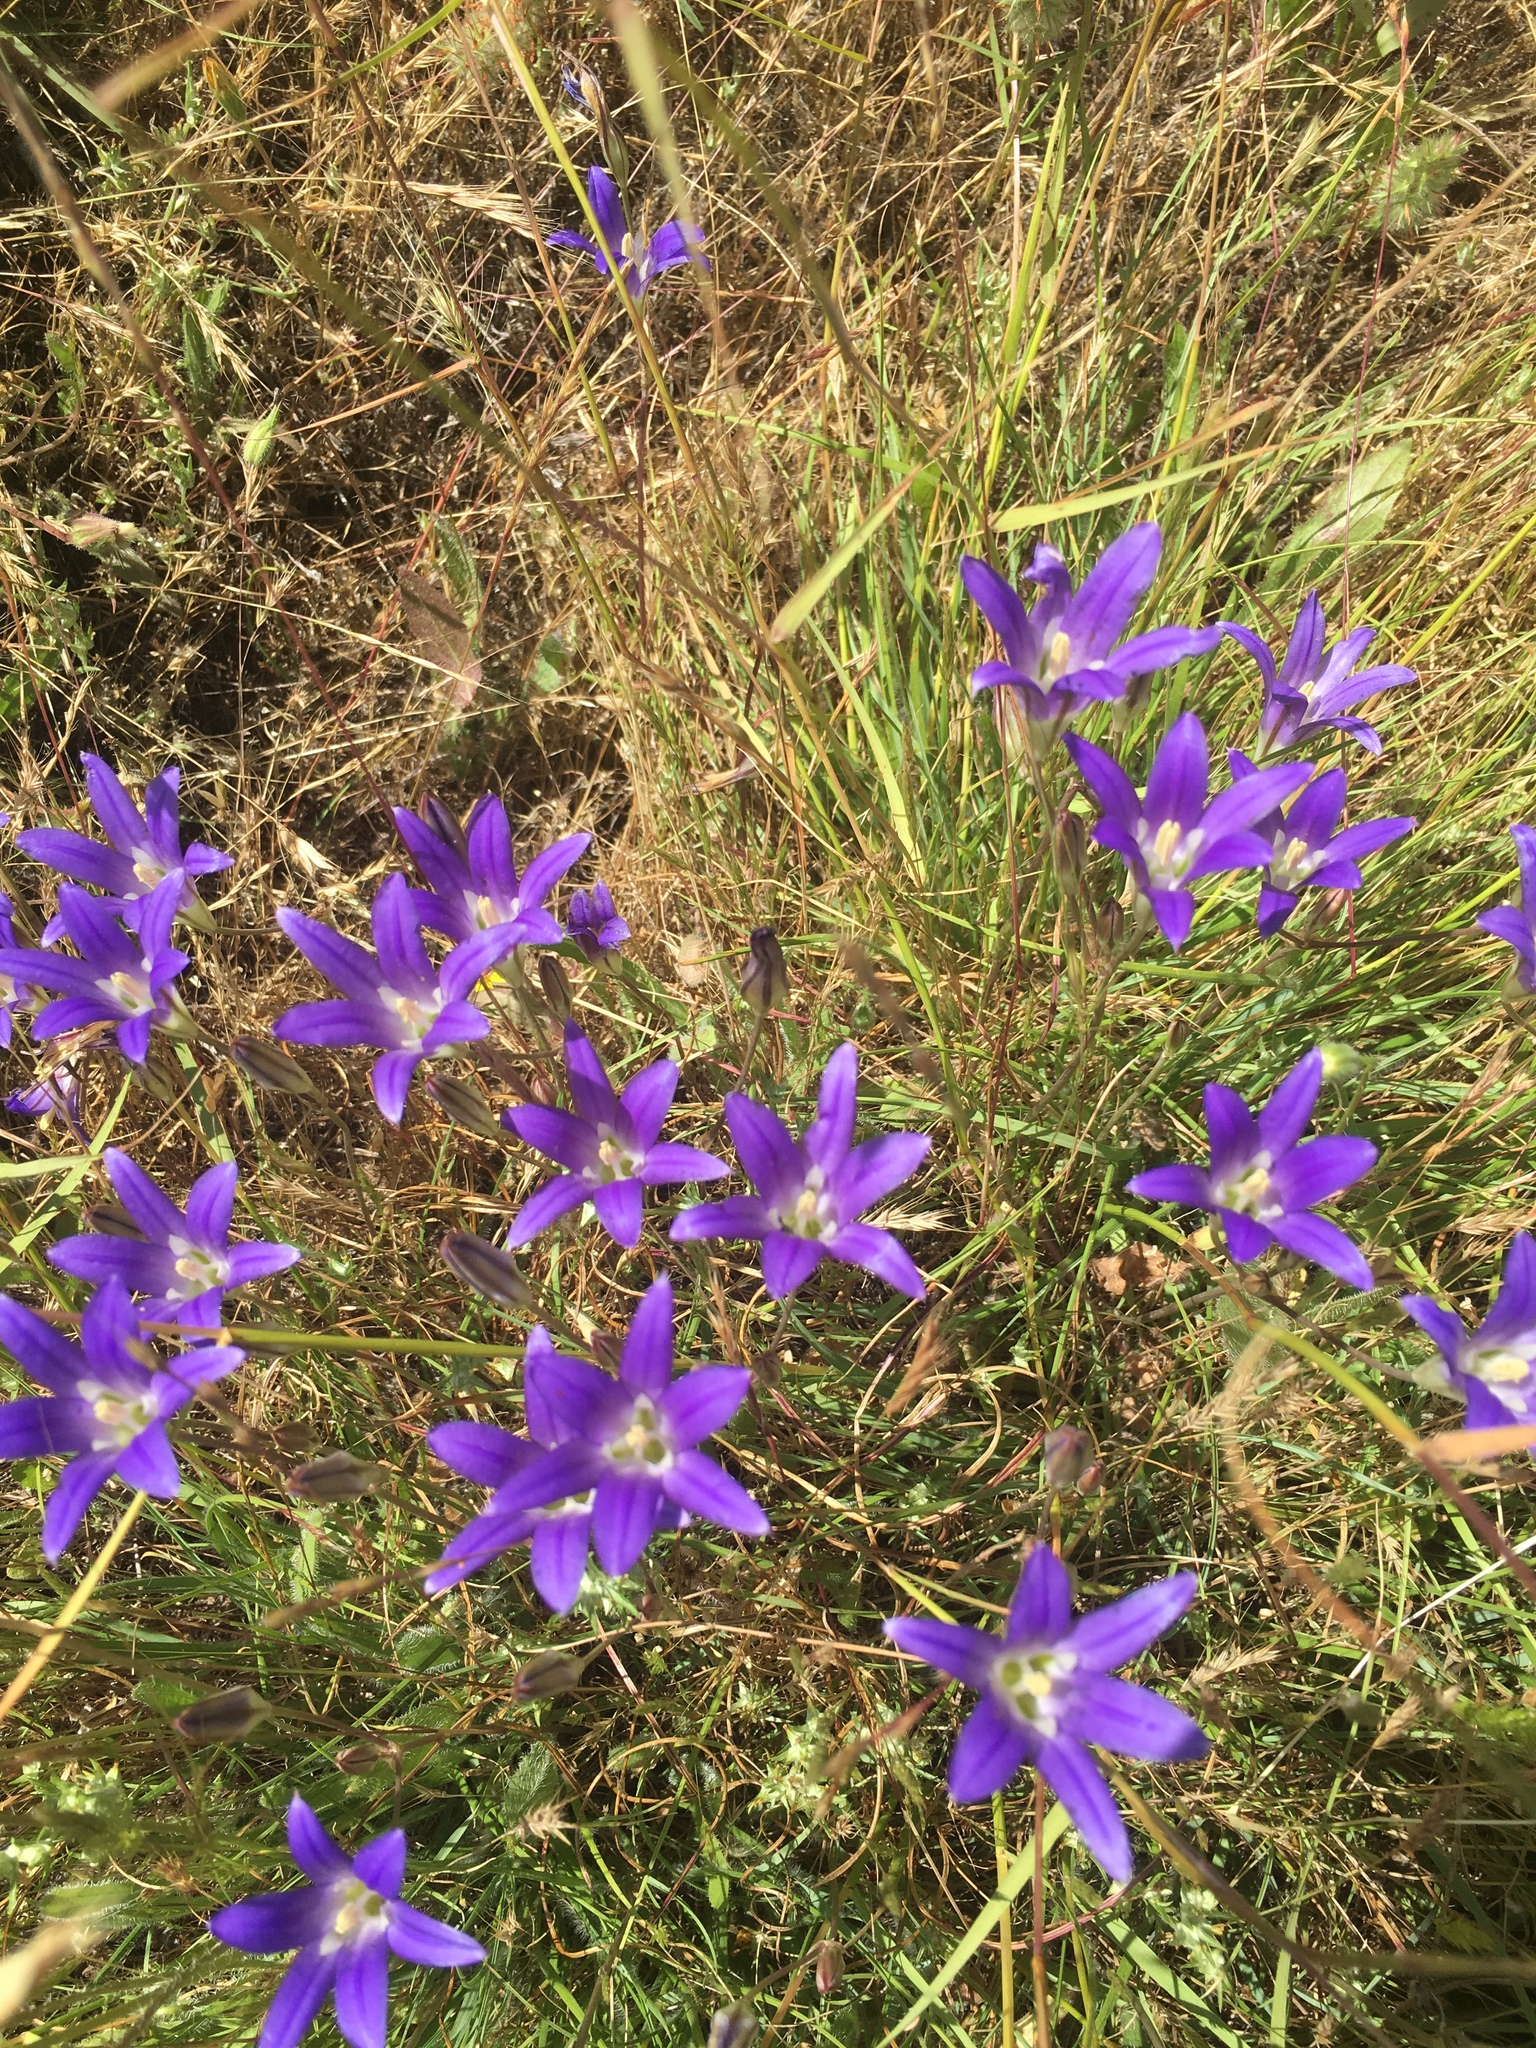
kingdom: Plantae
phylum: Tracheophyta
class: Liliopsida
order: Asparagales
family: Asparagaceae
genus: Brodiaea
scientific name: Brodiaea elegans
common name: Elegant cluster-lily
